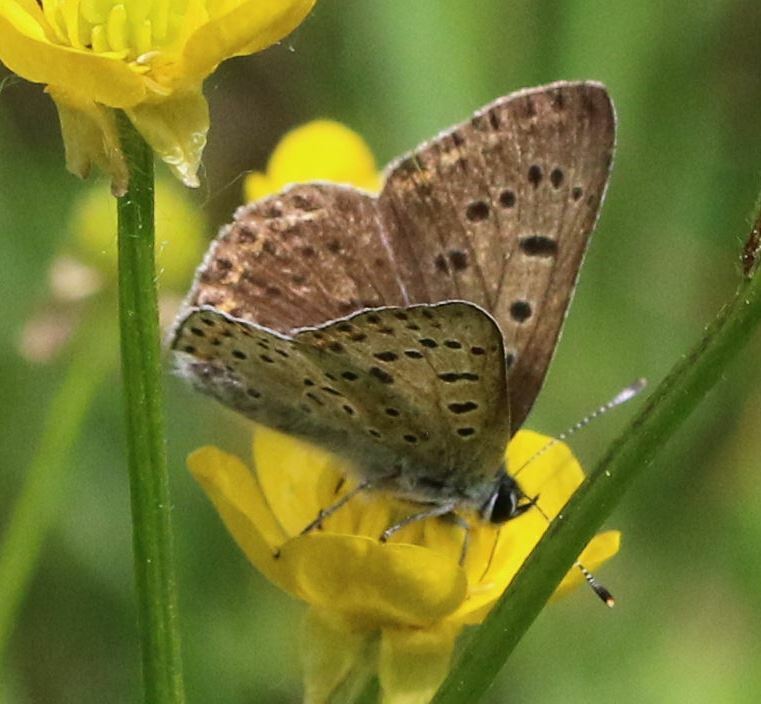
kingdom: Animalia
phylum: Arthropoda
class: Insecta
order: Lepidoptera
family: Lycaenidae
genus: Loweia
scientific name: Loweia tityrus
